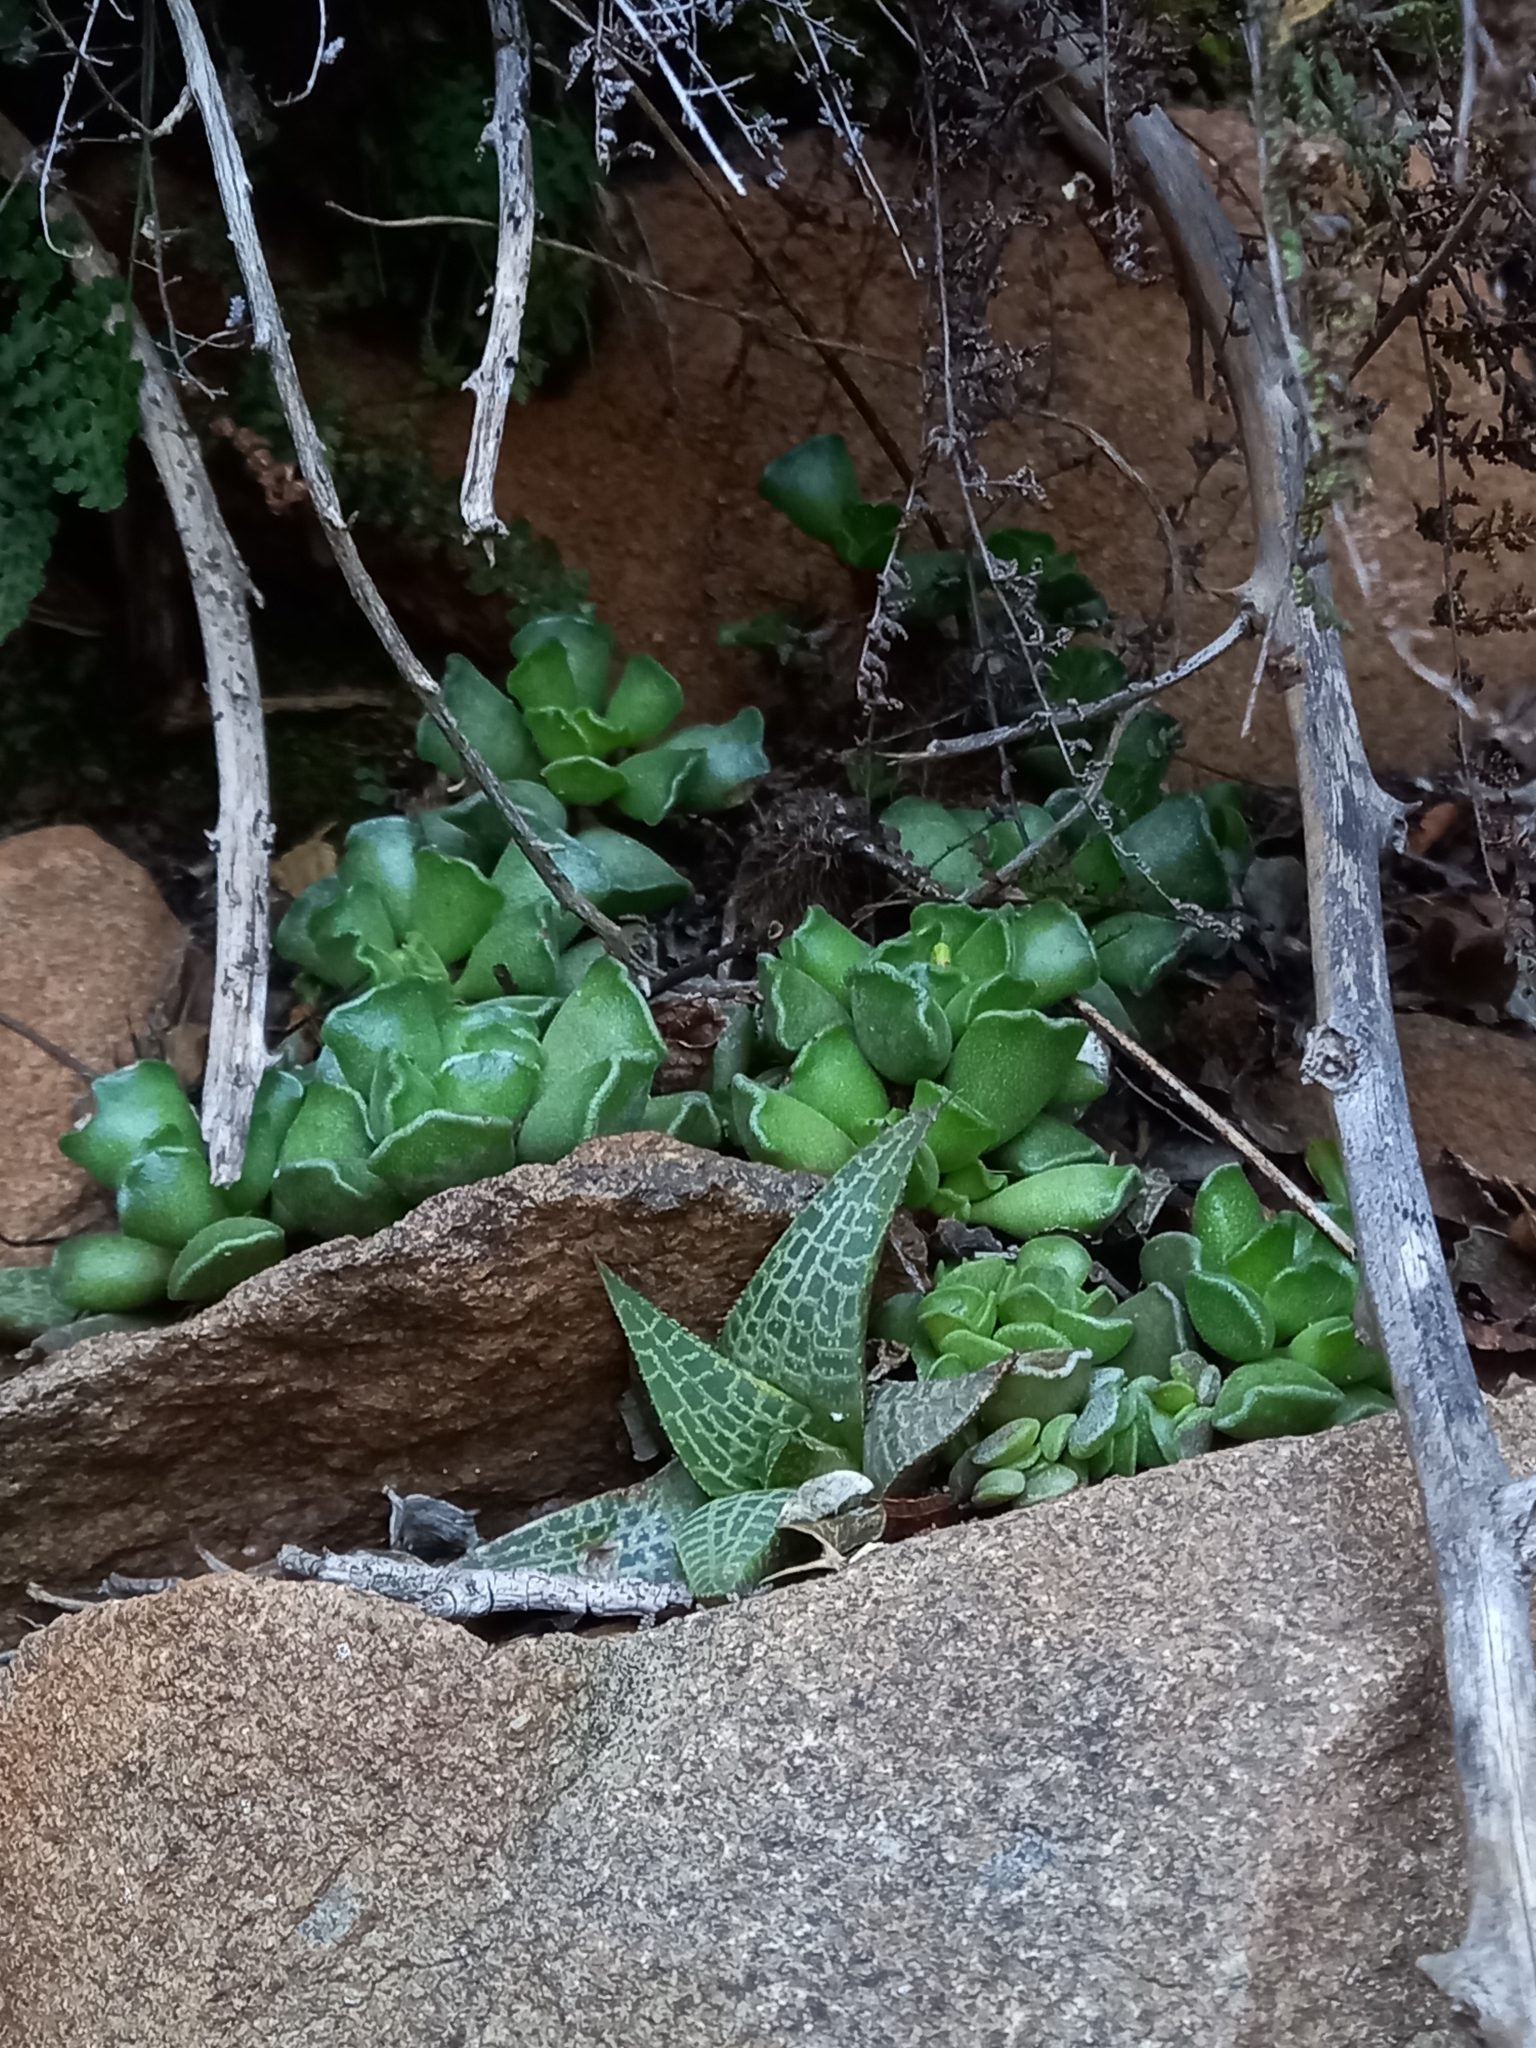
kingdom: Plantae
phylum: Tracheophyta
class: Magnoliopsida
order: Saxifragales
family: Crassulaceae
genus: Adromischus
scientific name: Adromischus cristatus
